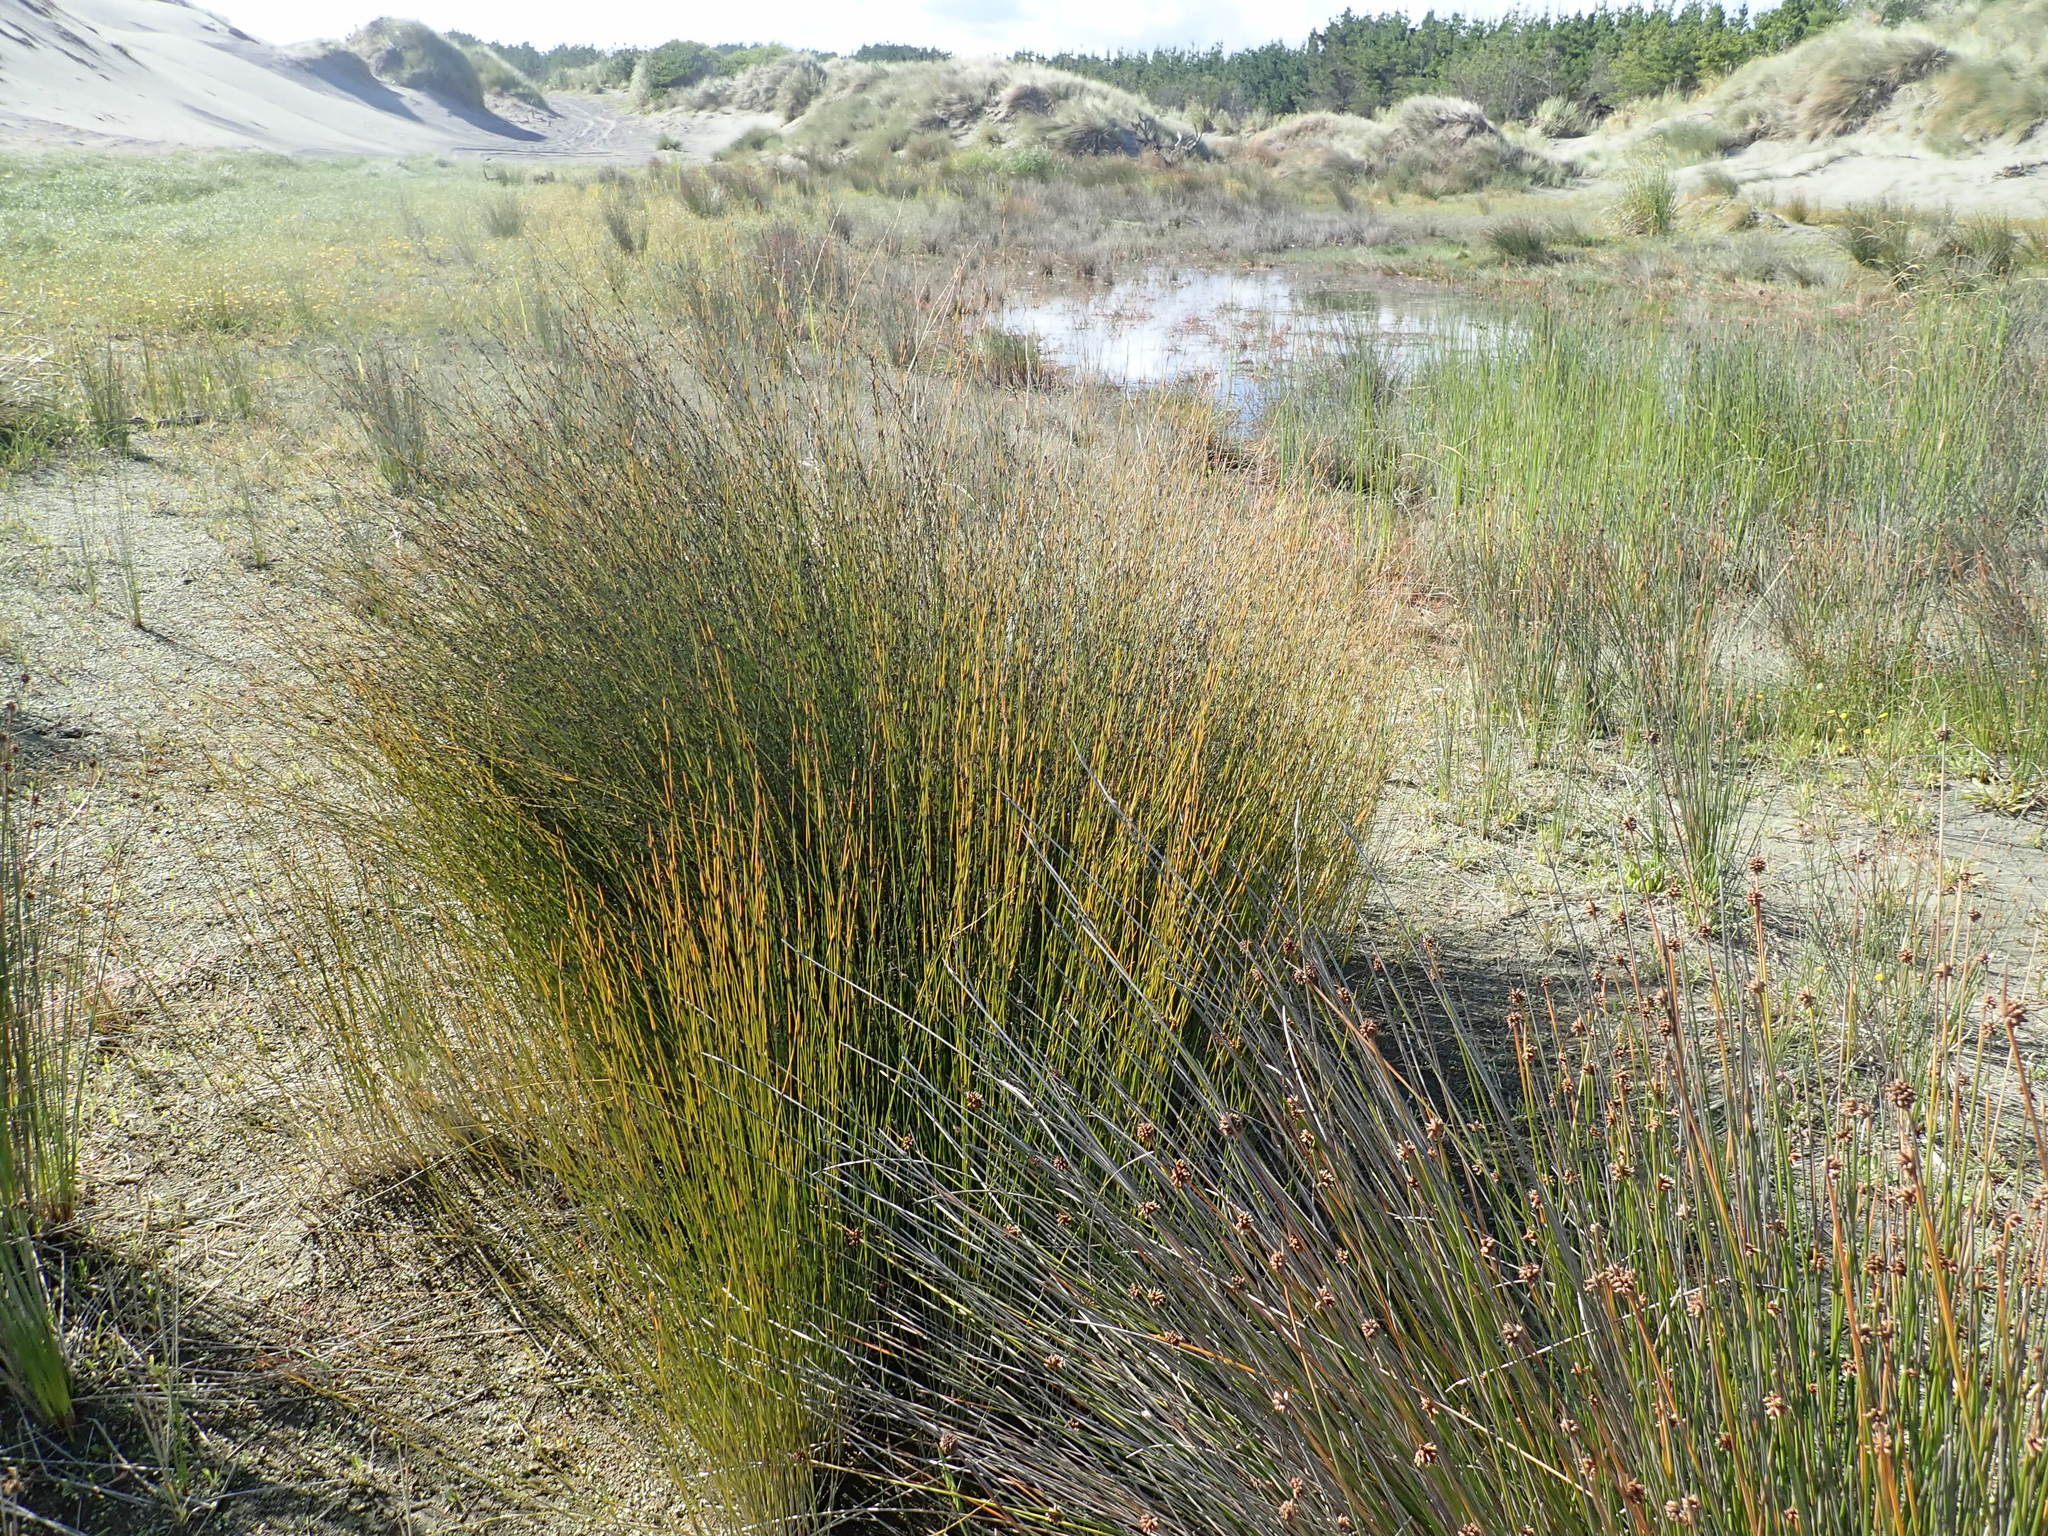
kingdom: Plantae
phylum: Tracheophyta
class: Liliopsida
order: Poales
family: Restionaceae
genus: Apodasmia
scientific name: Apodasmia similis
